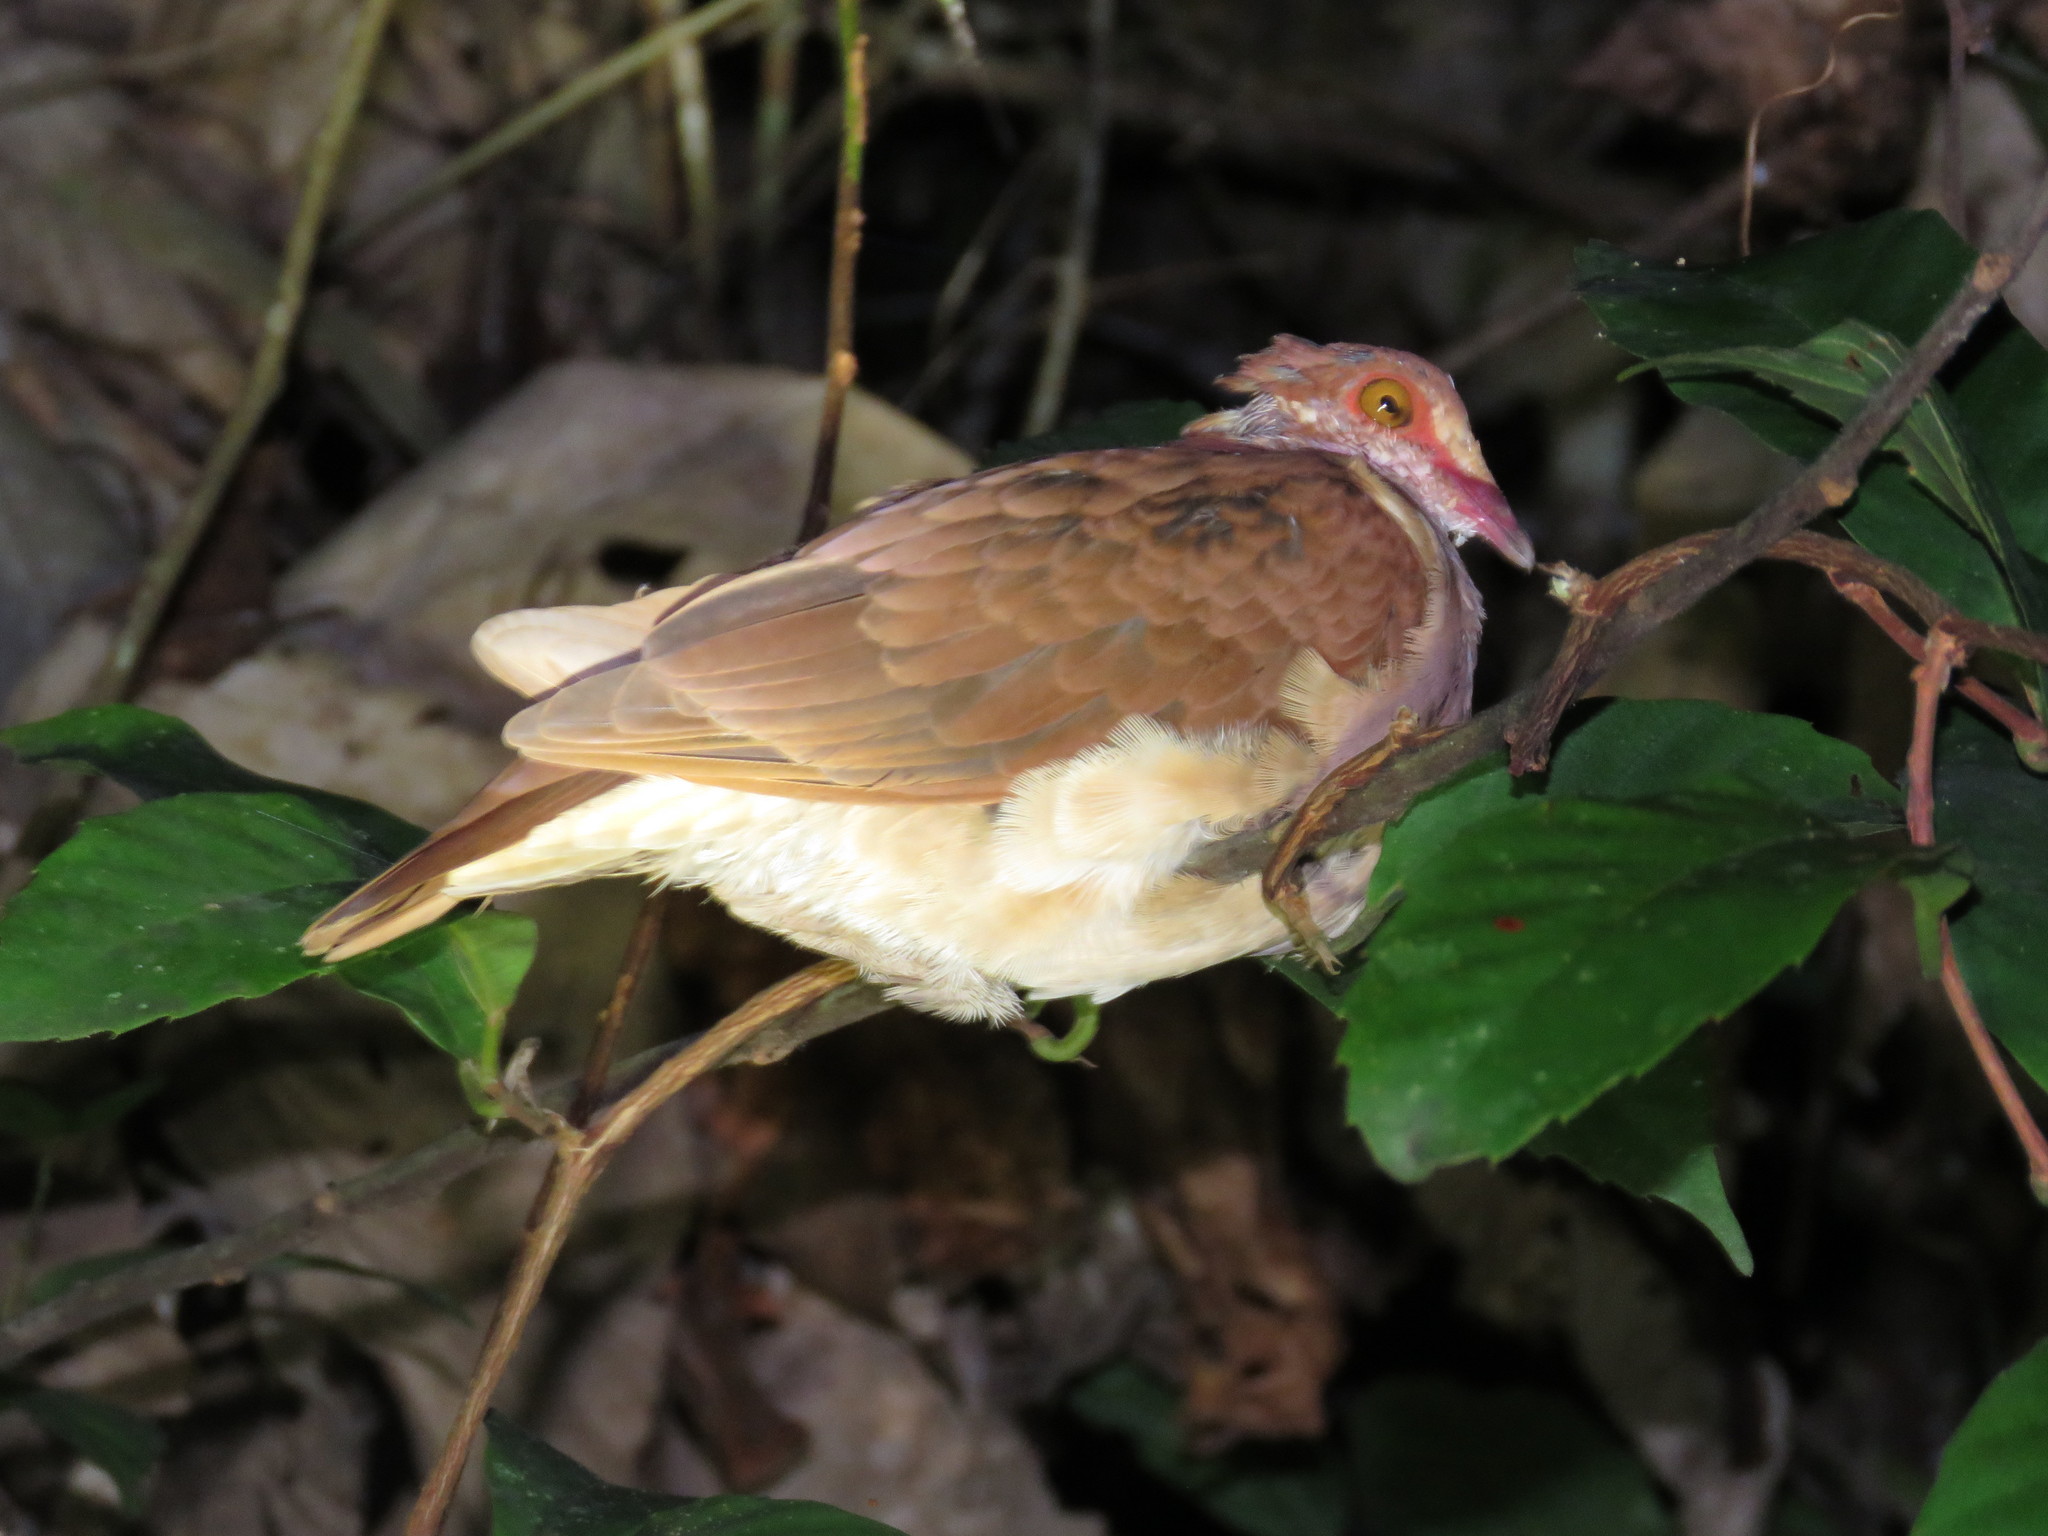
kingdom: Animalia
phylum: Chordata
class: Aves
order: Columbiformes
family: Columbidae
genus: Geotrygon
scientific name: Geotrygon montana
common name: Ruddy quail-dove
